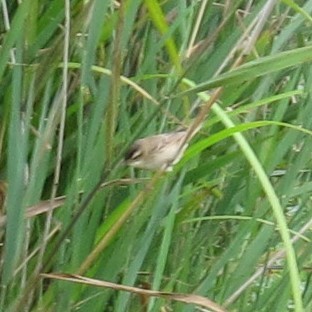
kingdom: Animalia
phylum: Chordata
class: Aves
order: Passeriformes
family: Acrocephalidae
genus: Acrocephalus
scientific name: Acrocephalus schoenobaenus
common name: Sedge warbler
